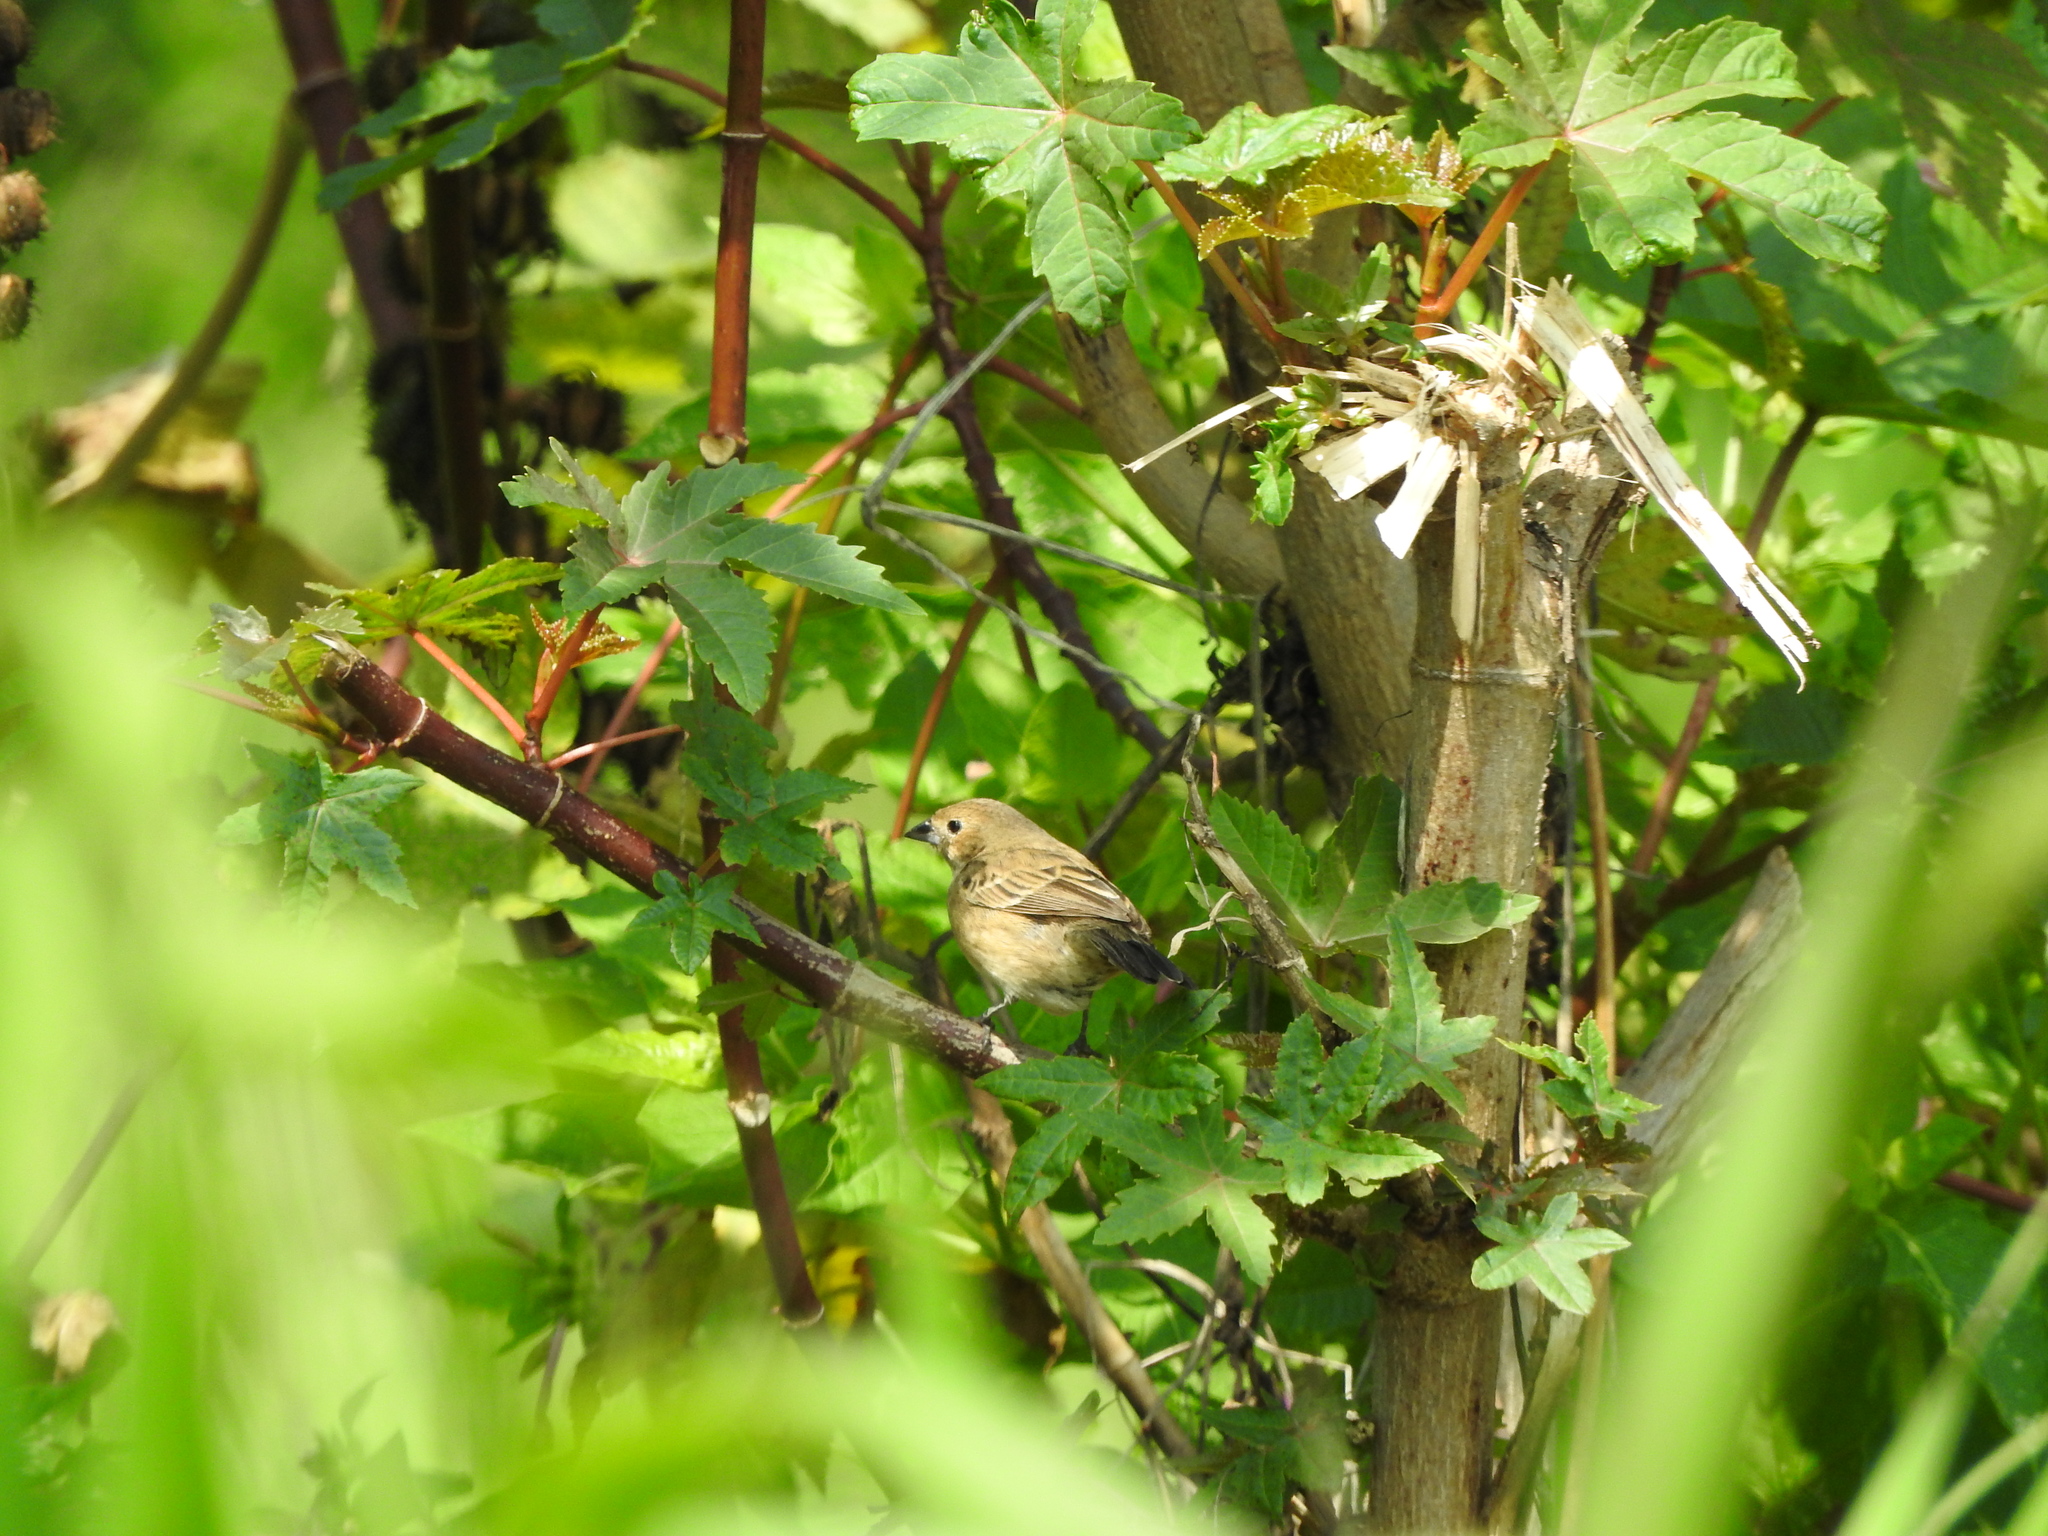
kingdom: Animalia
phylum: Chordata
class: Aves
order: Passeriformes
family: Thraupidae
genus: Volatinia
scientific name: Volatinia jacarina
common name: Blue-black grassquit
